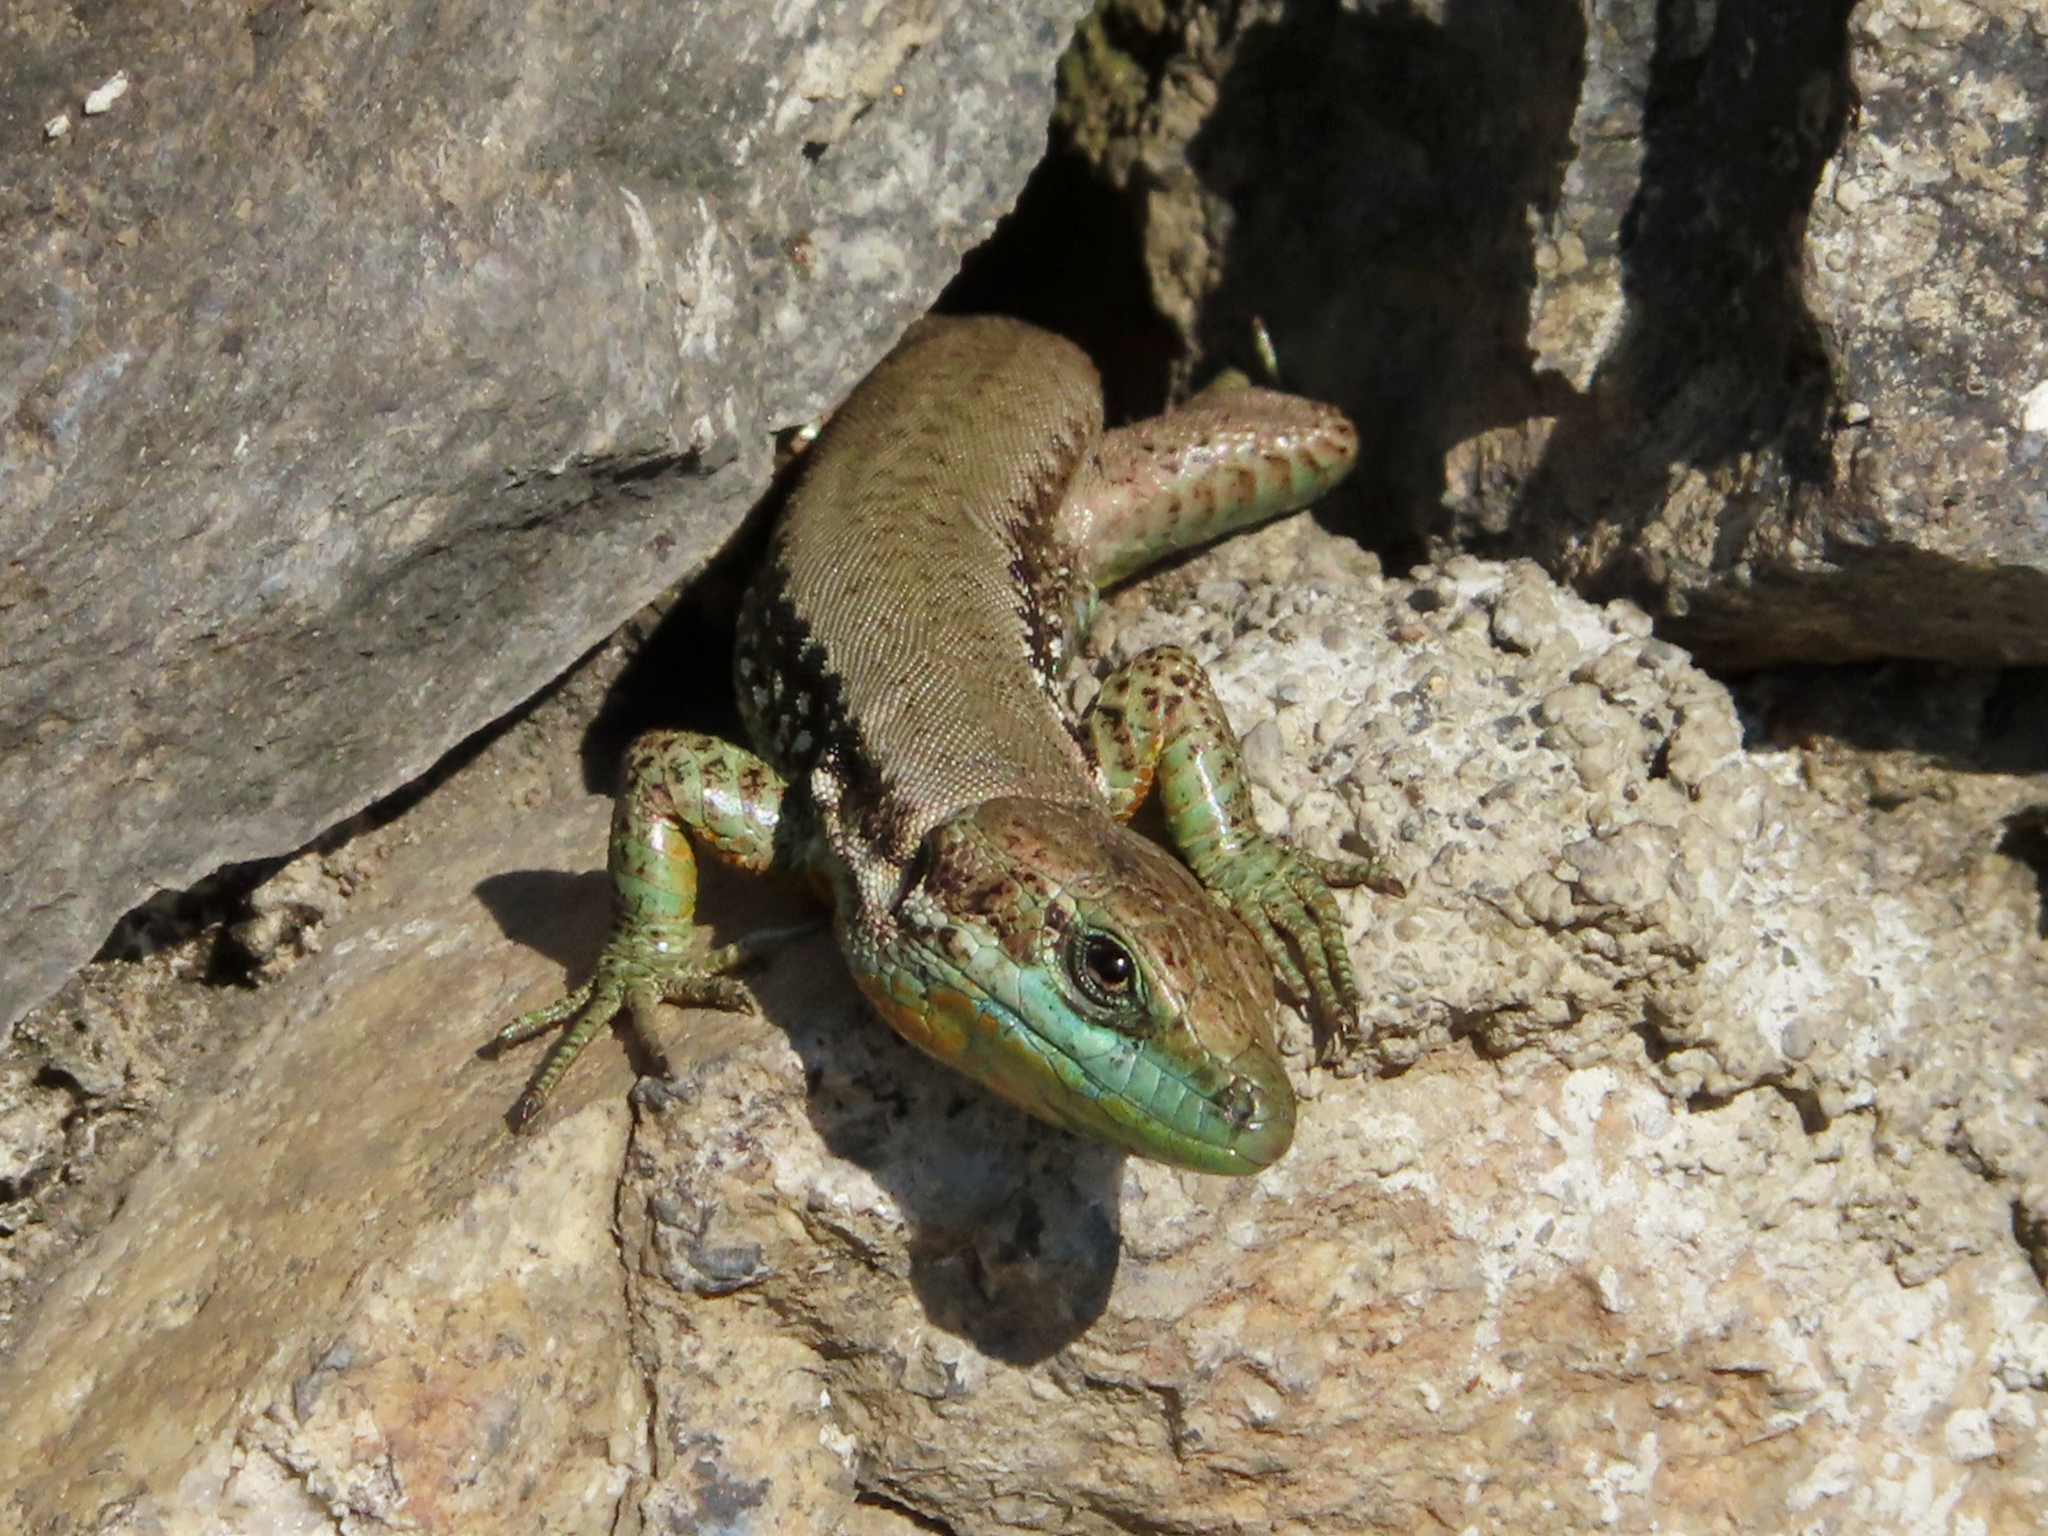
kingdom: Animalia
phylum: Chordata
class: Squamata
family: Lacertidae
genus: Phoenicolacerta
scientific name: Phoenicolacerta laevis
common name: Lebanon lizard
